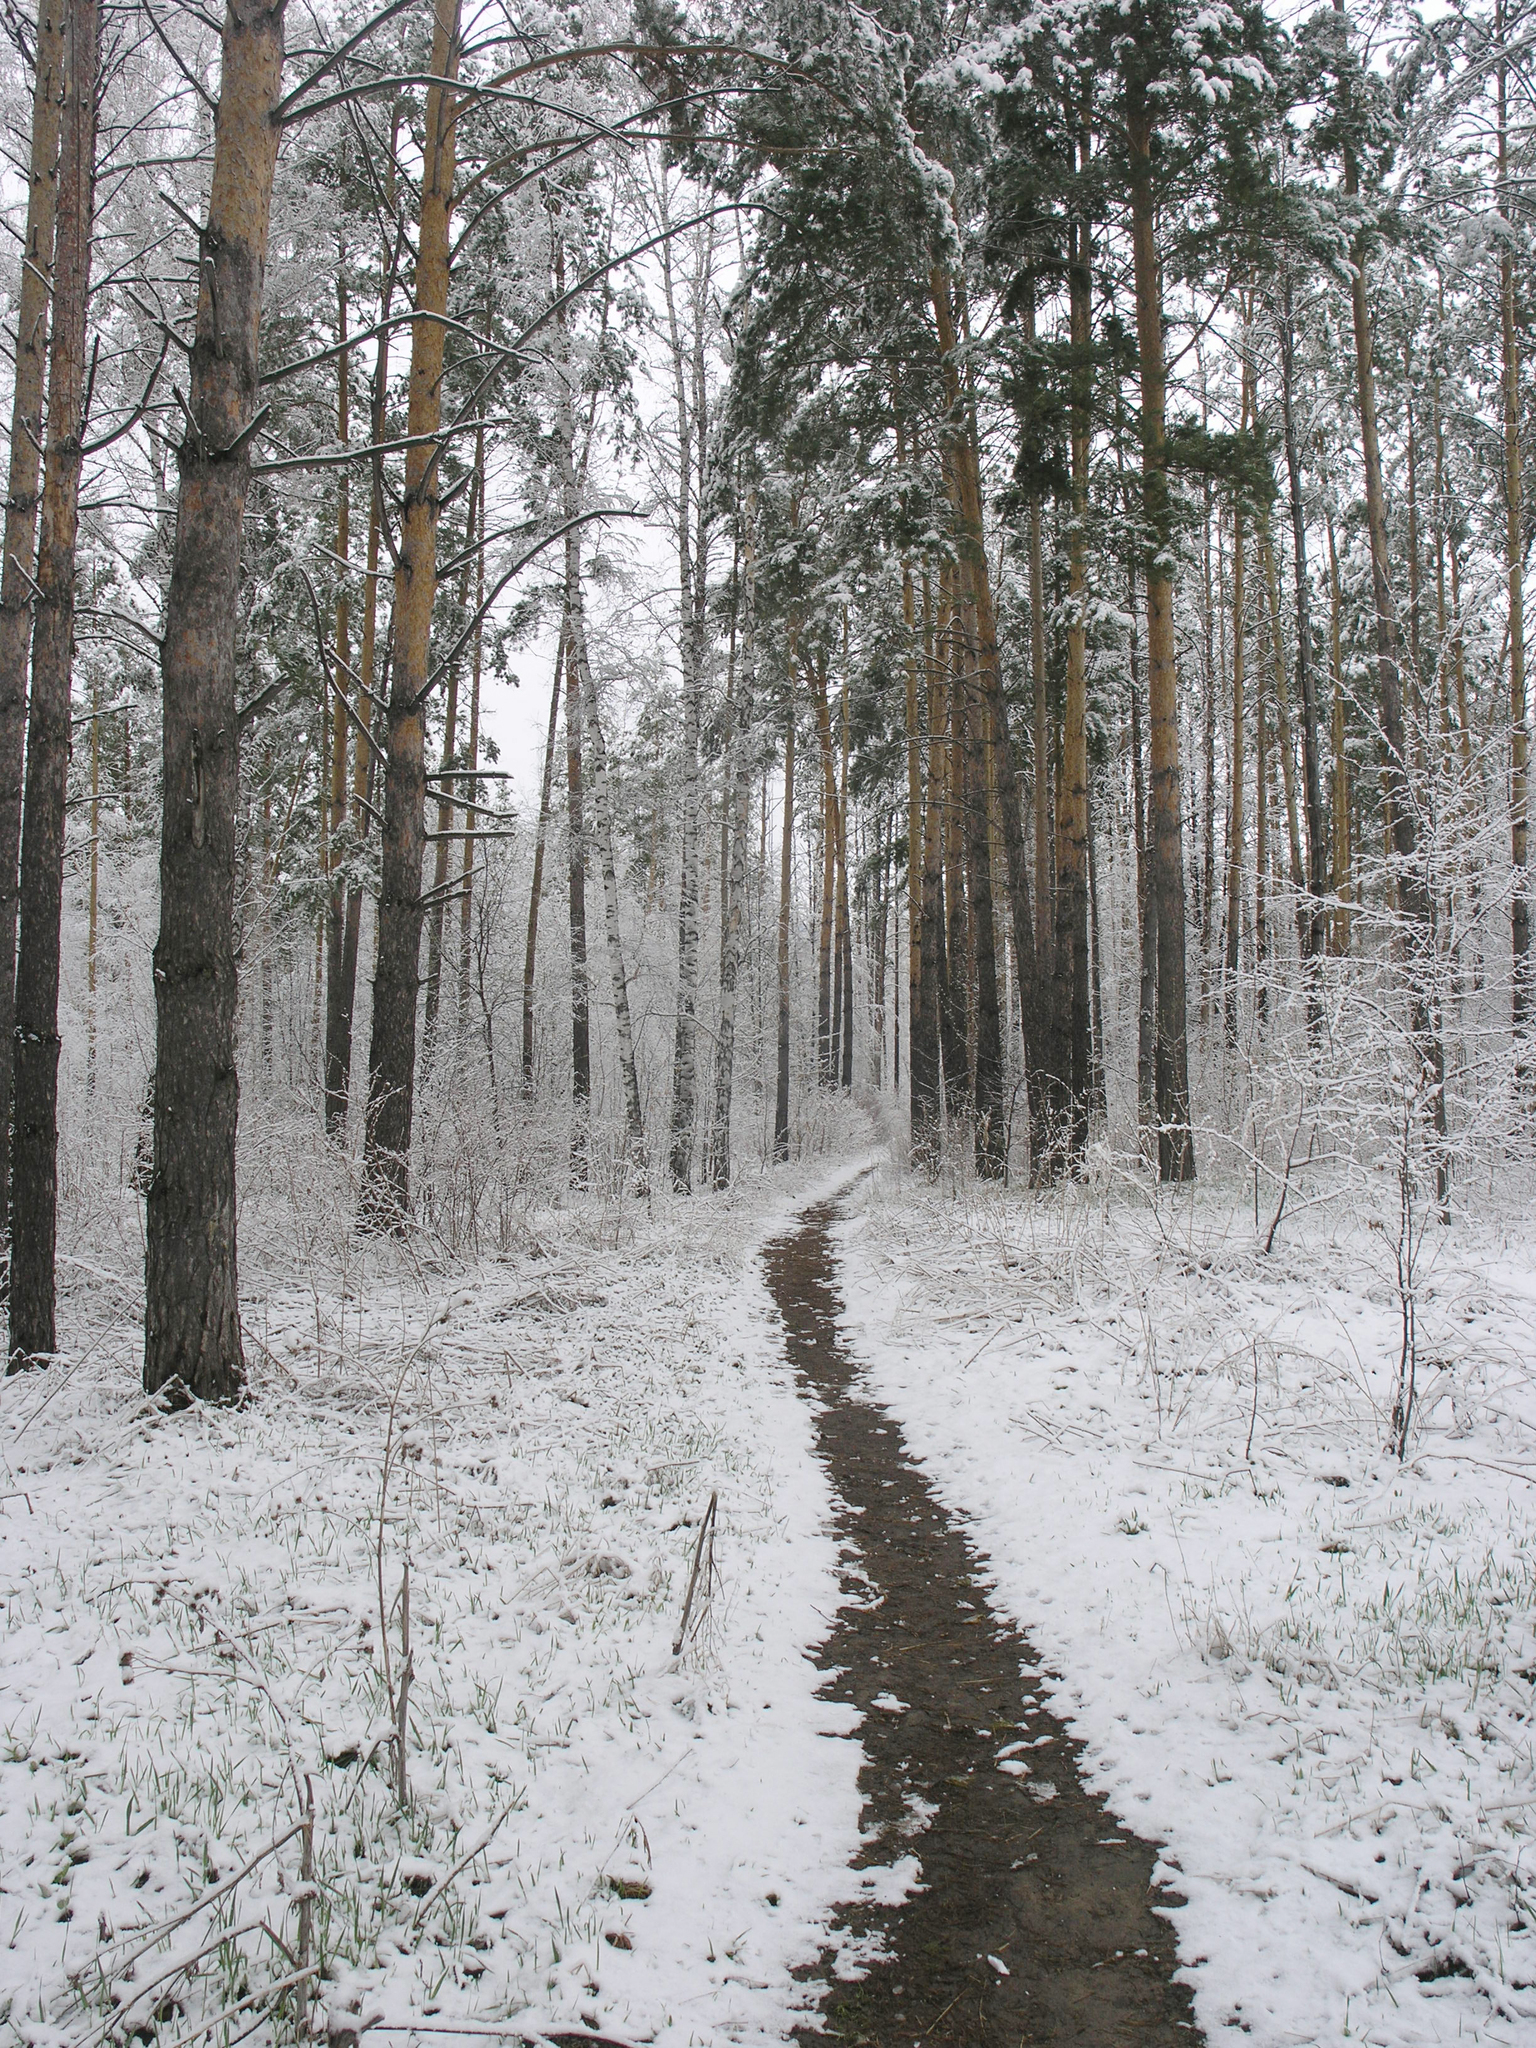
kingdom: Plantae
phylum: Tracheophyta
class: Pinopsida
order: Pinales
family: Pinaceae
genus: Pinus
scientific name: Pinus sylvestris
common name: Scots pine
